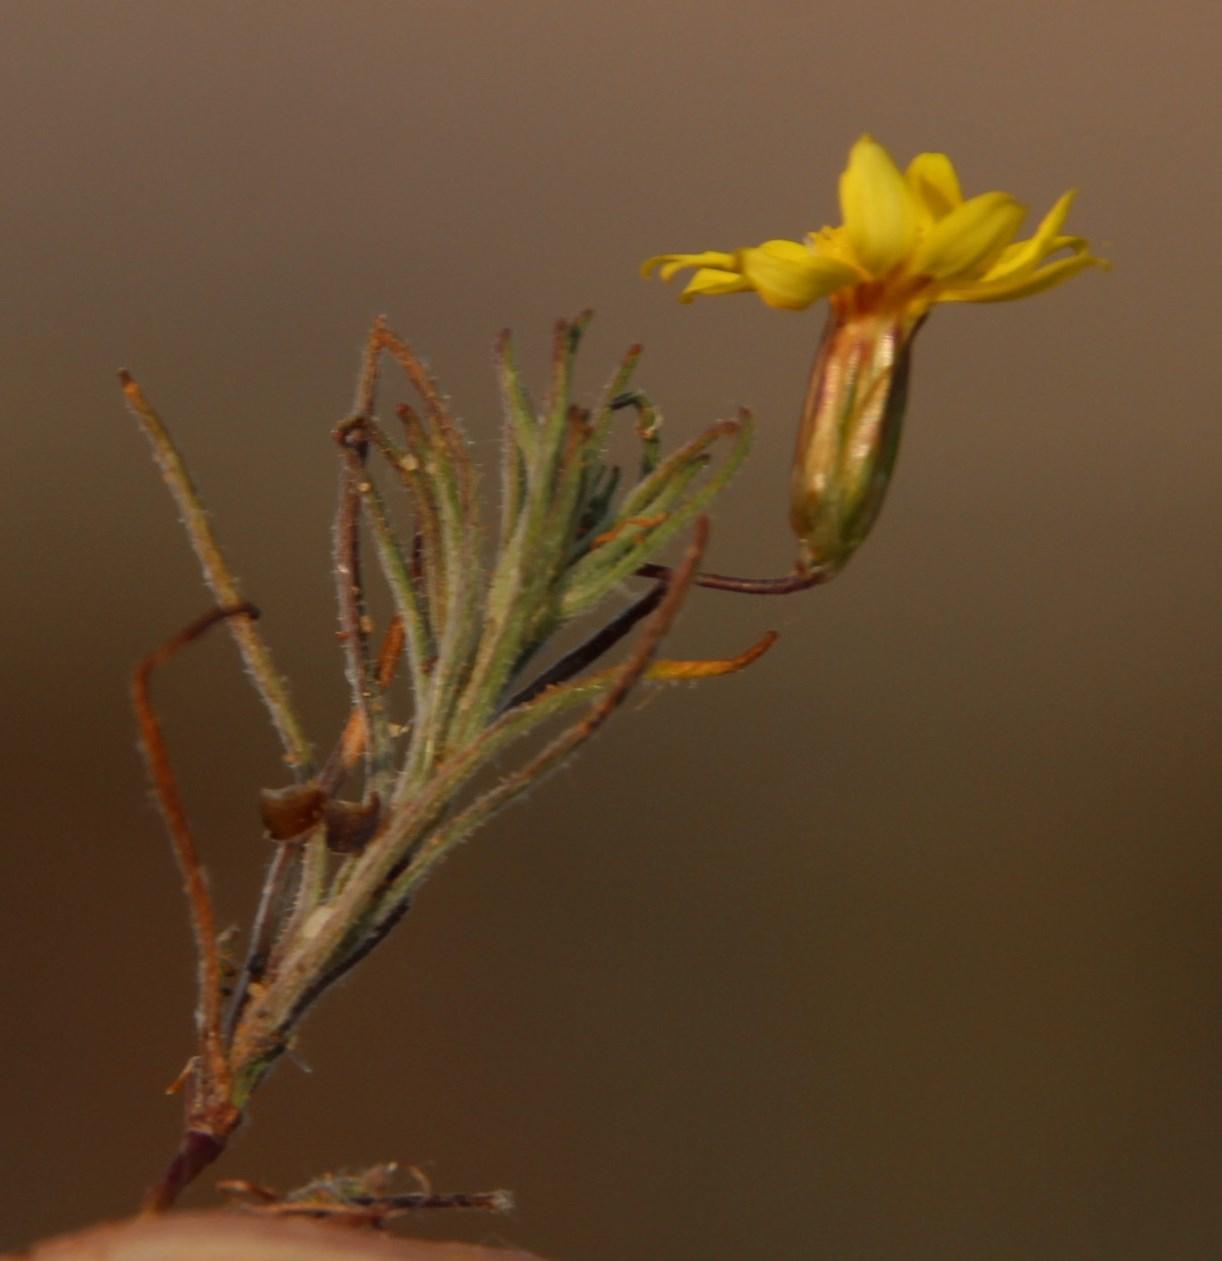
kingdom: Plantae
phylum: Tracheophyta
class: Magnoliopsida
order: Asterales
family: Asteraceae
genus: Rhynchopsidium
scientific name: Rhynchopsidium sessiliflorum
